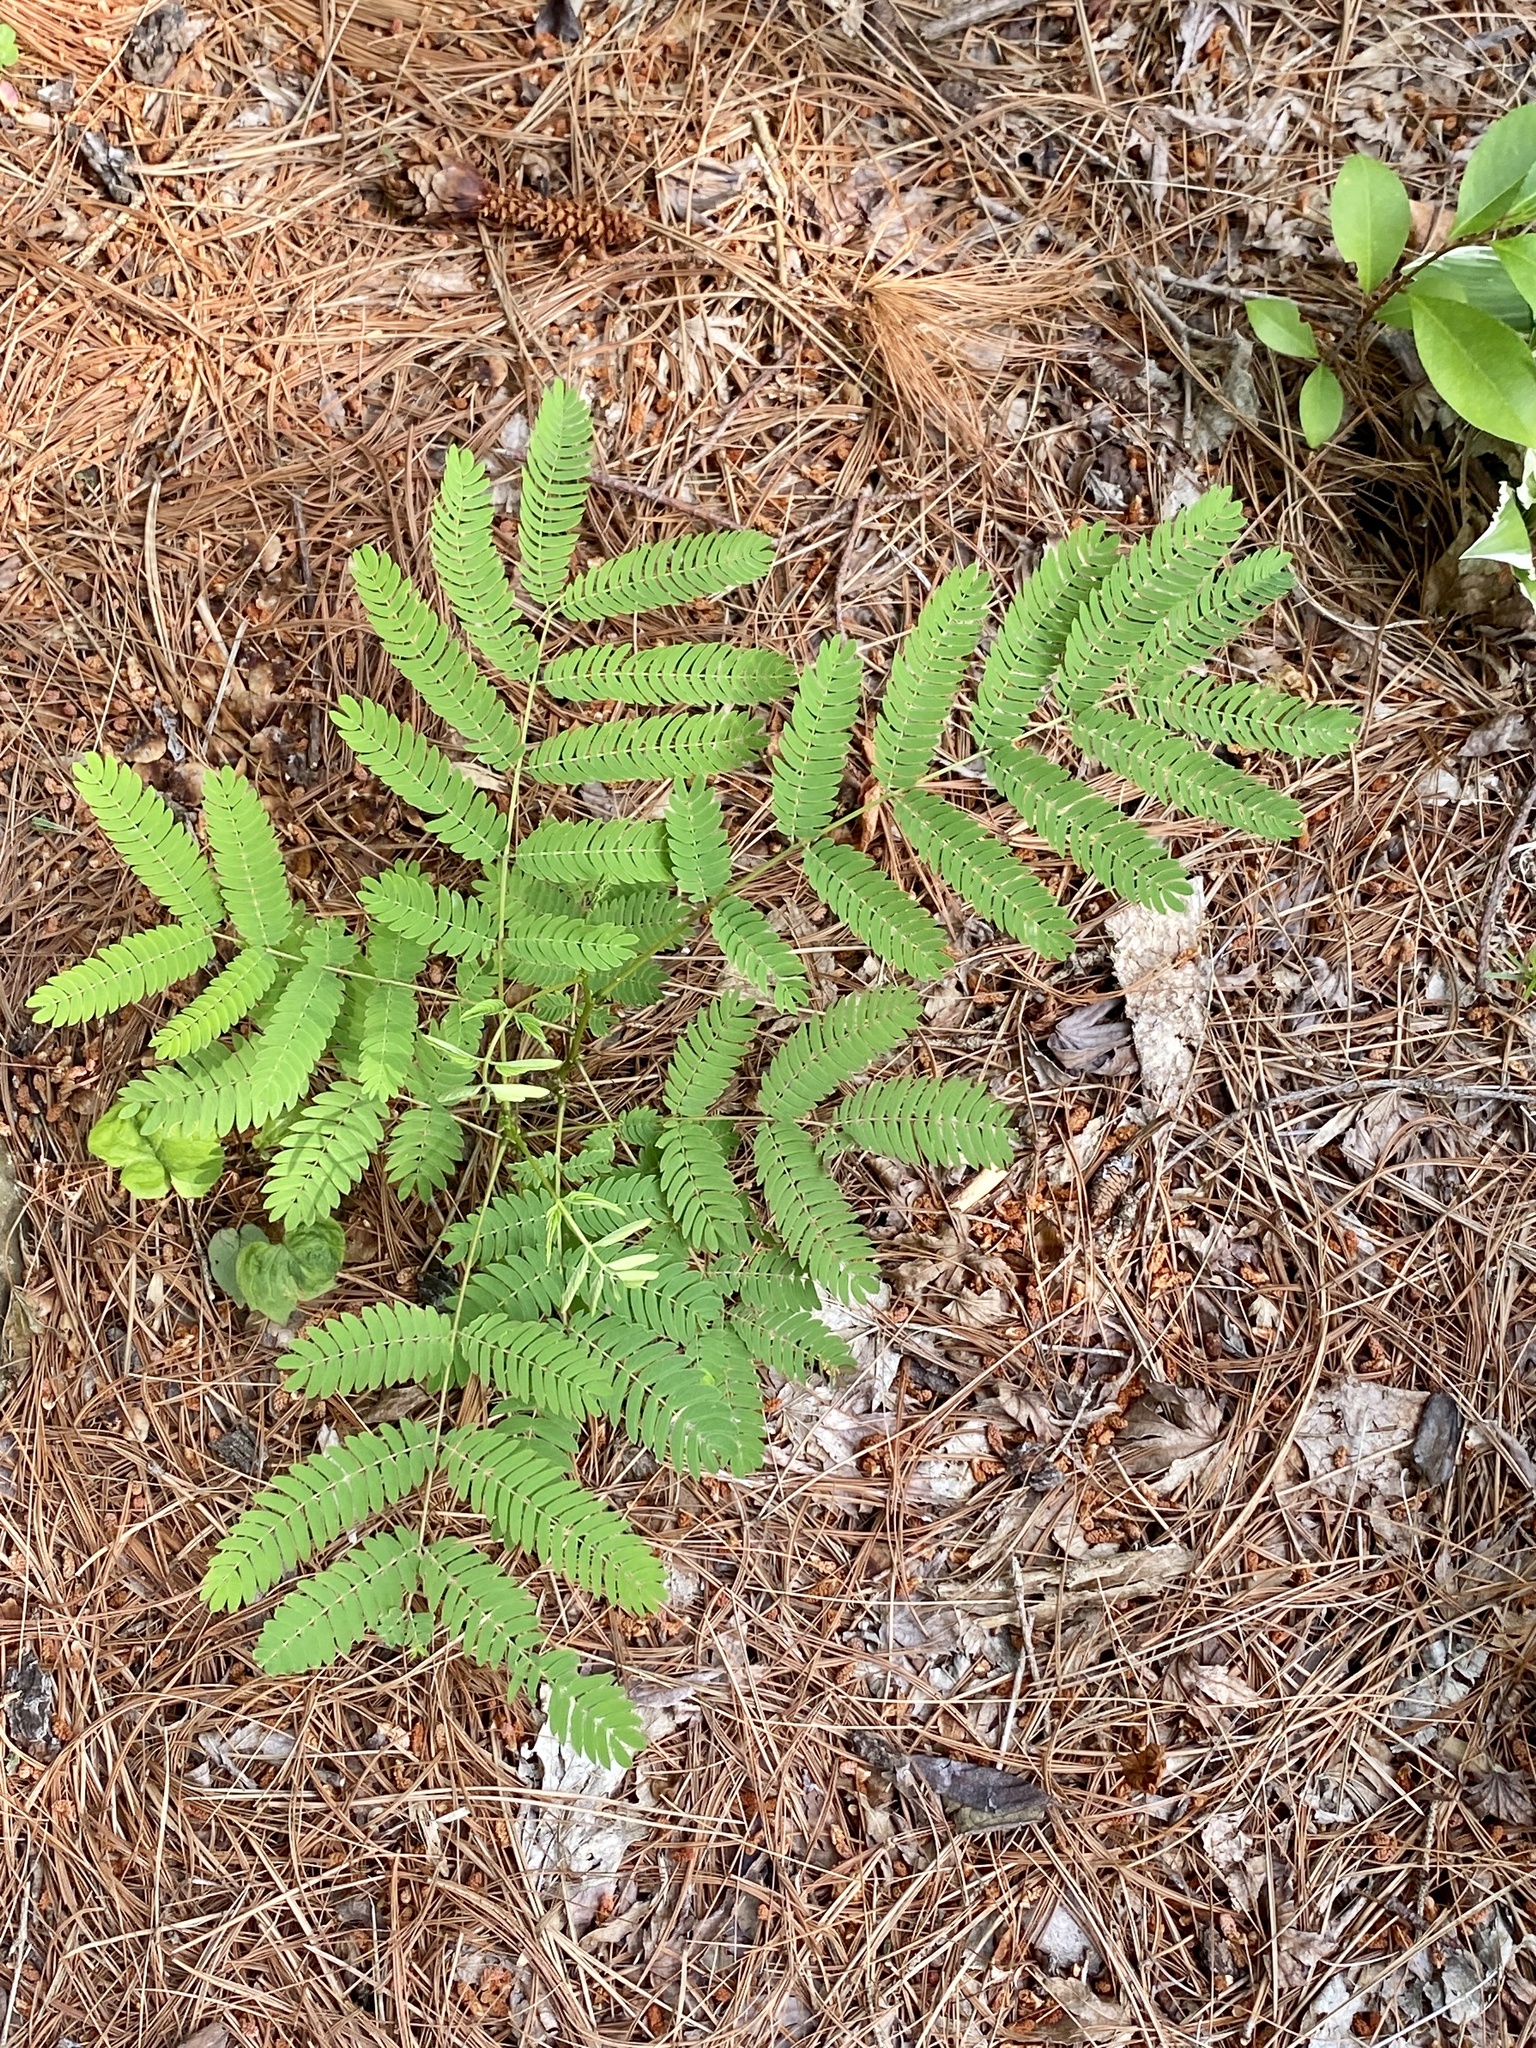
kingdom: Plantae
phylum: Tracheophyta
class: Magnoliopsida
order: Fabales
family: Fabaceae
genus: Albizia
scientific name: Albizia julibrissin
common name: Silktree
